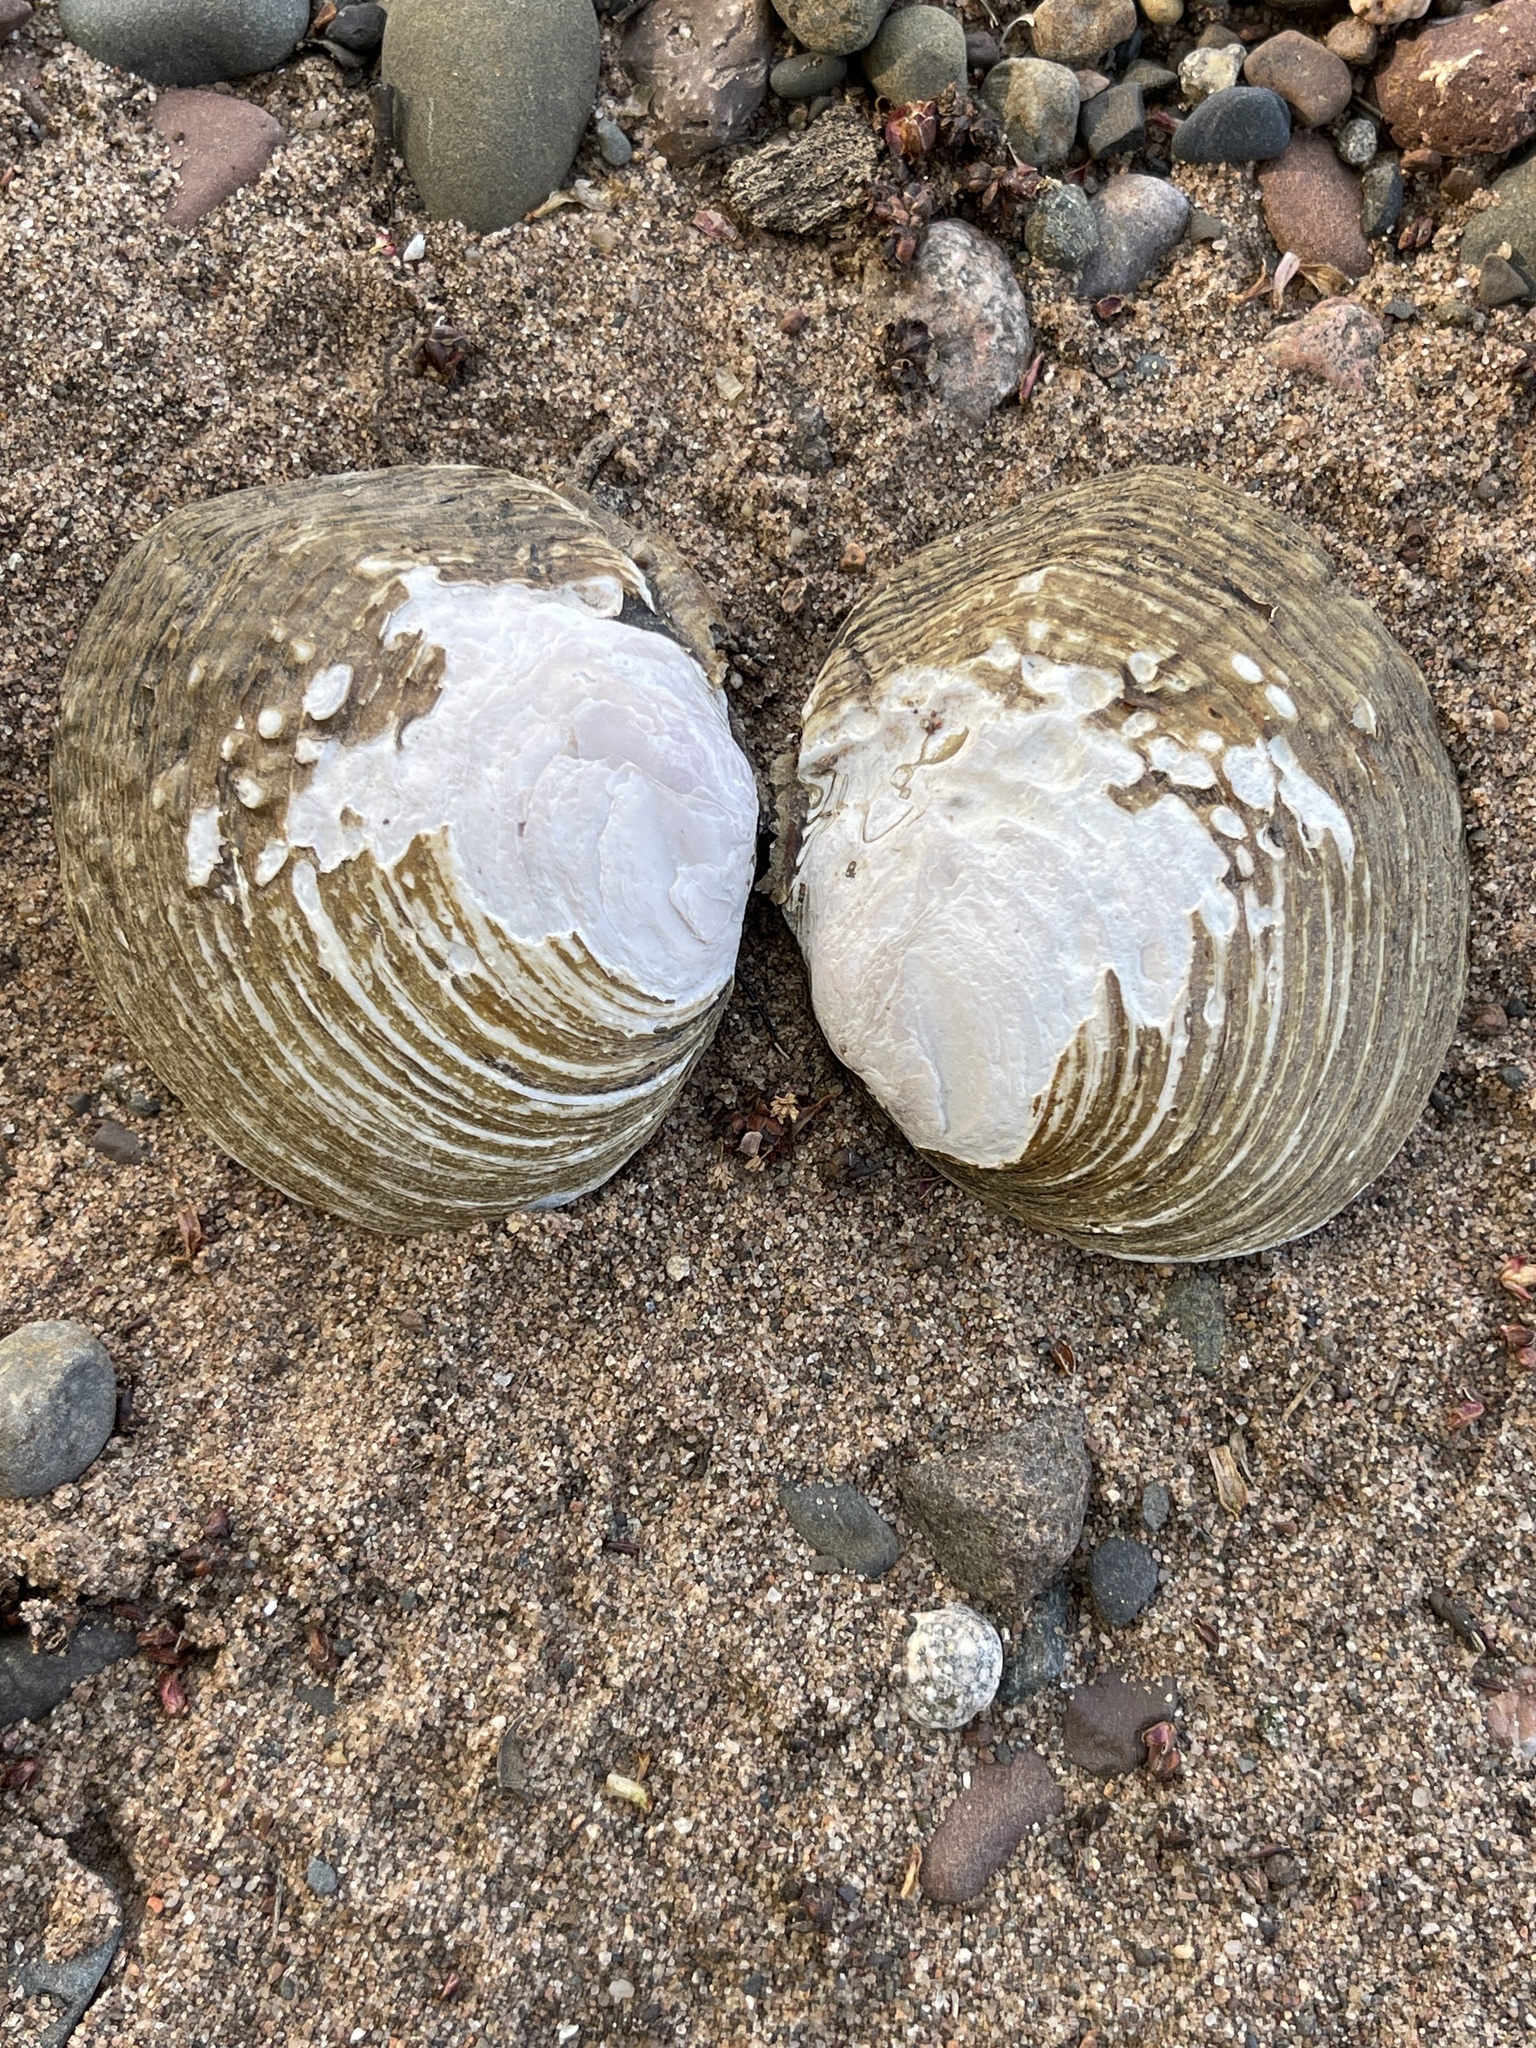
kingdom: Animalia
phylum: Mollusca
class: Bivalvia
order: Unionida
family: Unionidae
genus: Cyclonaias
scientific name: Cyclonaias tuberculata
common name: Purple wartyback
